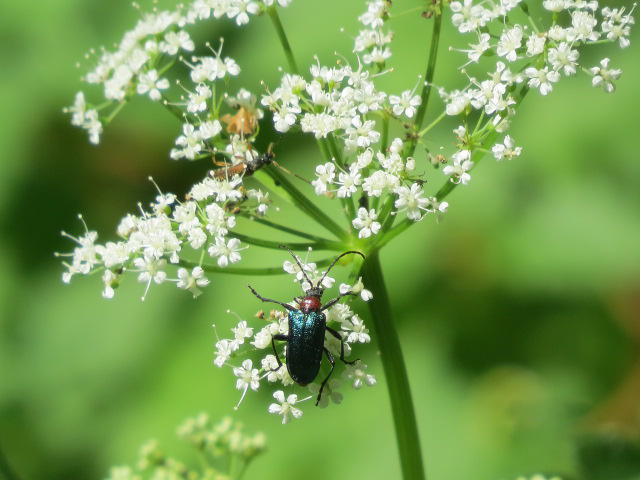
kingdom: Animalia
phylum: Arthropoda
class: Insecta
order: Coleoptera
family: Cerambycidae
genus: Gaurotes
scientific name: Gaurotes virginea
